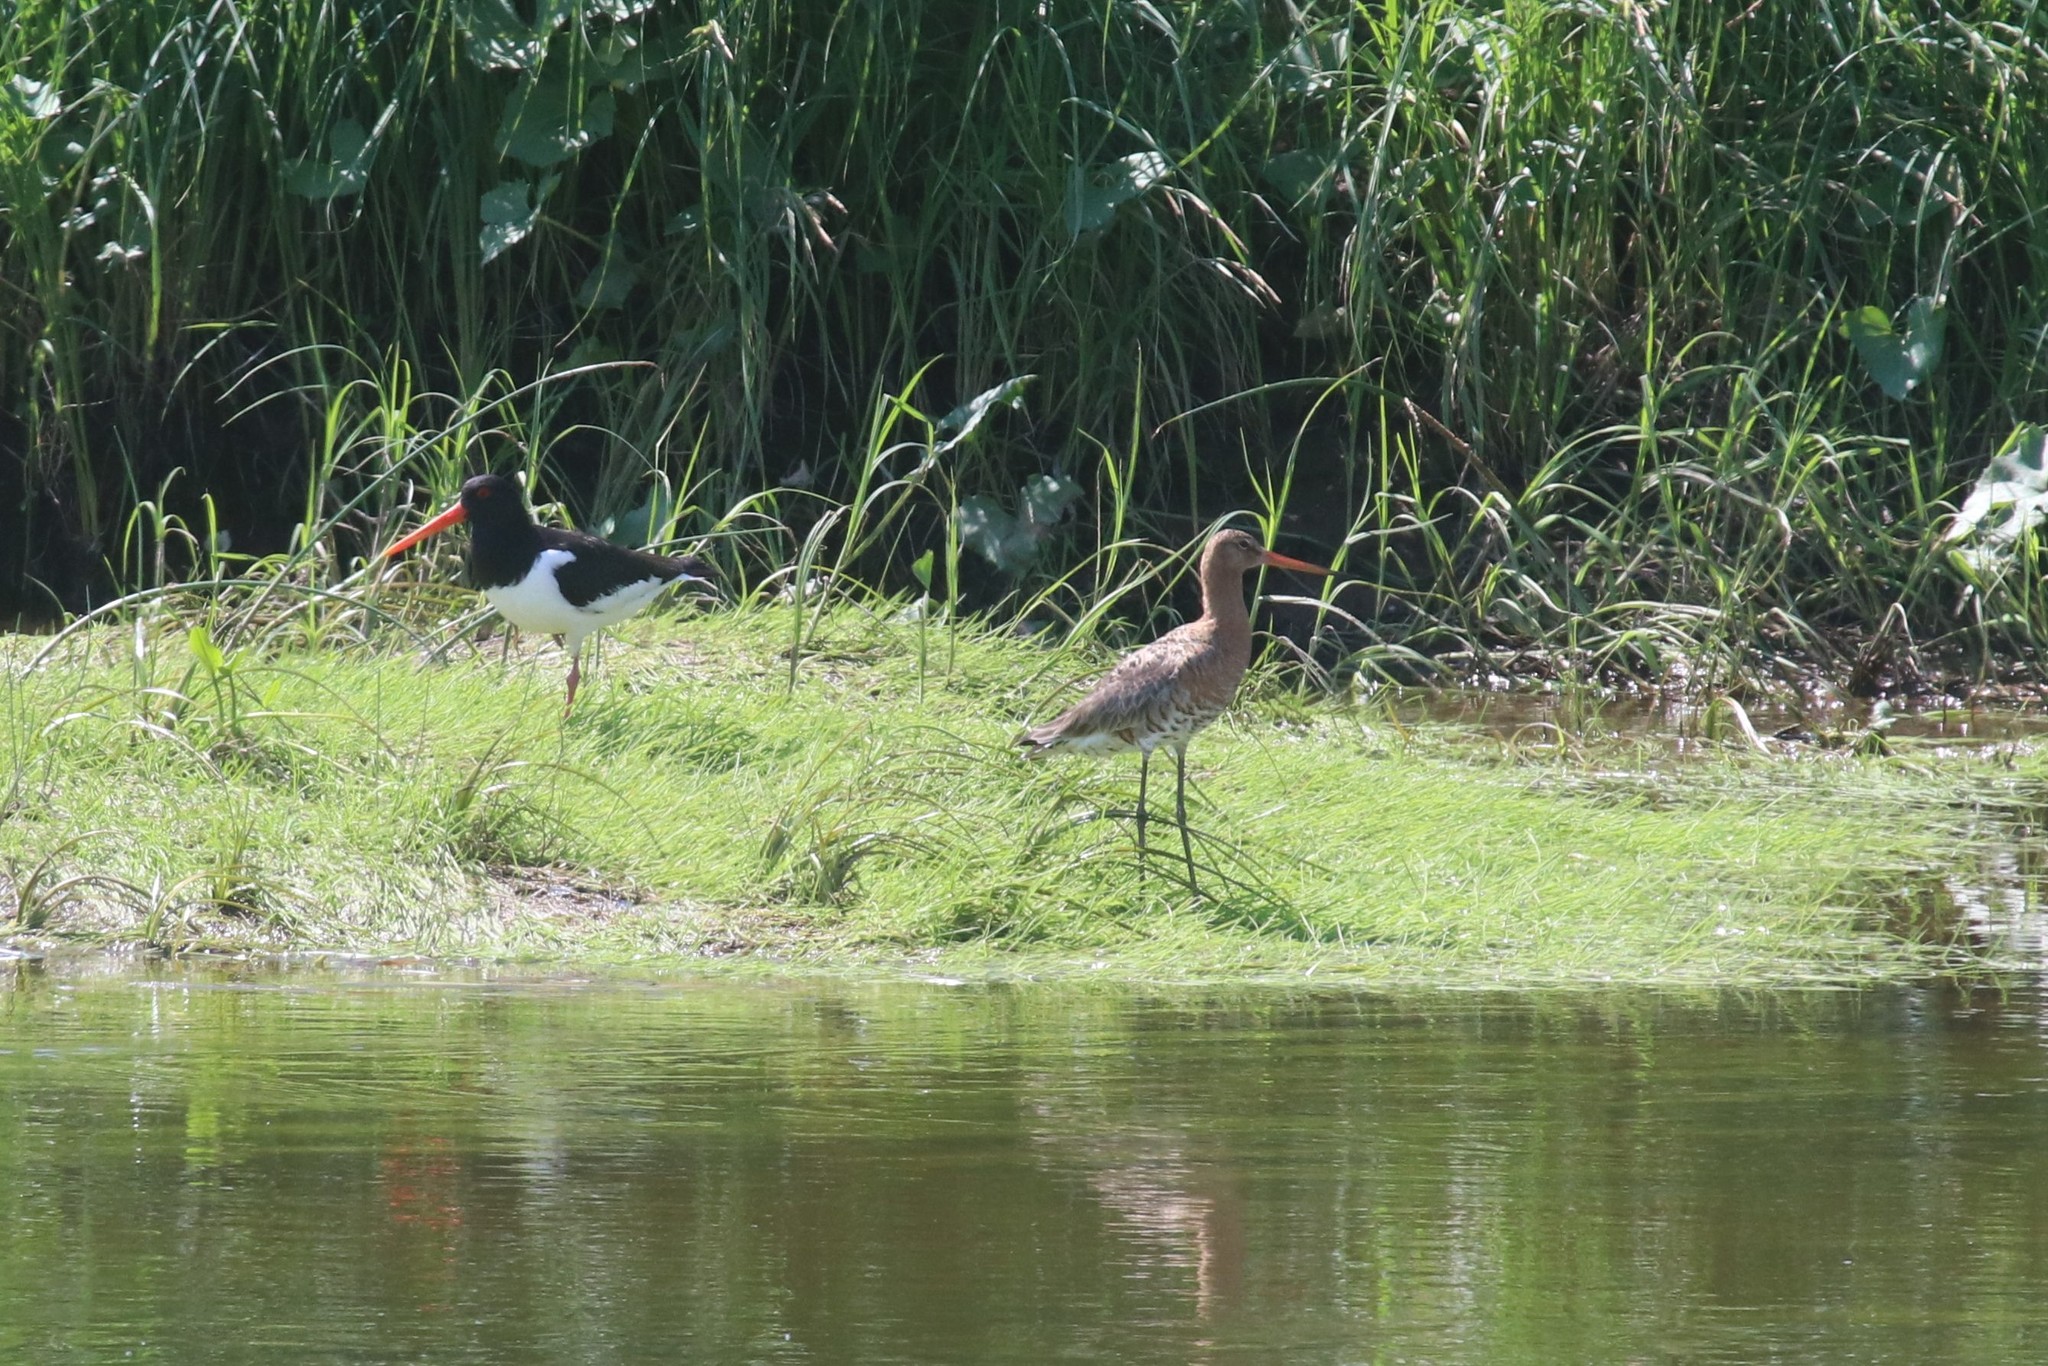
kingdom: Animalia
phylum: Chordata
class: Aves
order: Charadriiformes
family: Scolopacidae
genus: Limosa
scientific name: Limosa limosa
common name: Black-tailed godwit
